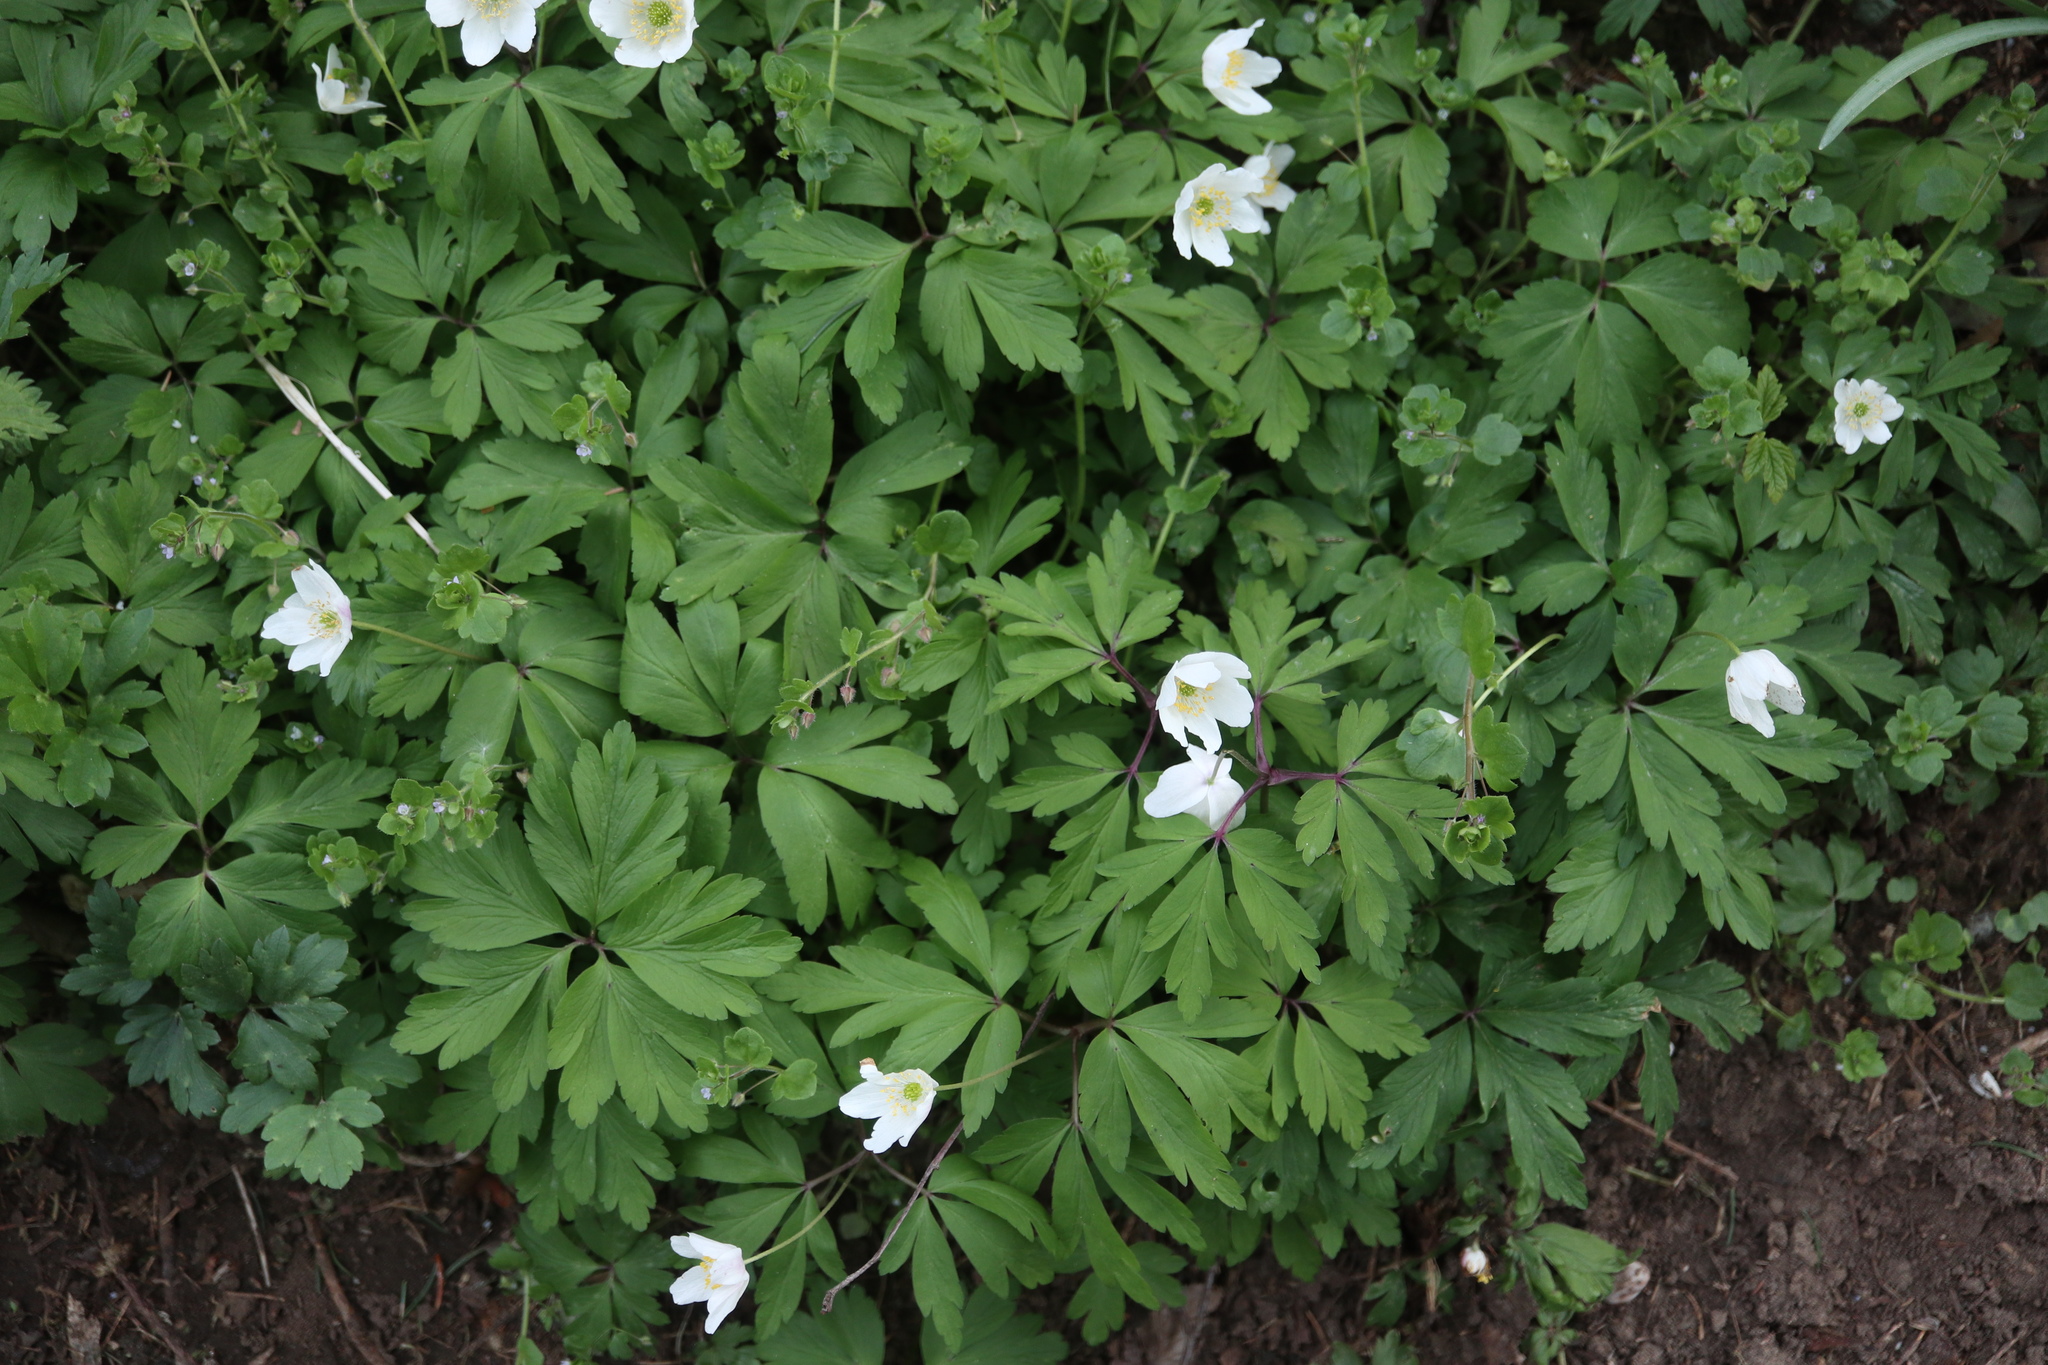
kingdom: Plantae
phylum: Tracheophyta
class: Magnoliopsida
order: Ranunculales
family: Ranunculaceae
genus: Anemone
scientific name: Anemone nemorosa
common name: Wood anemone
